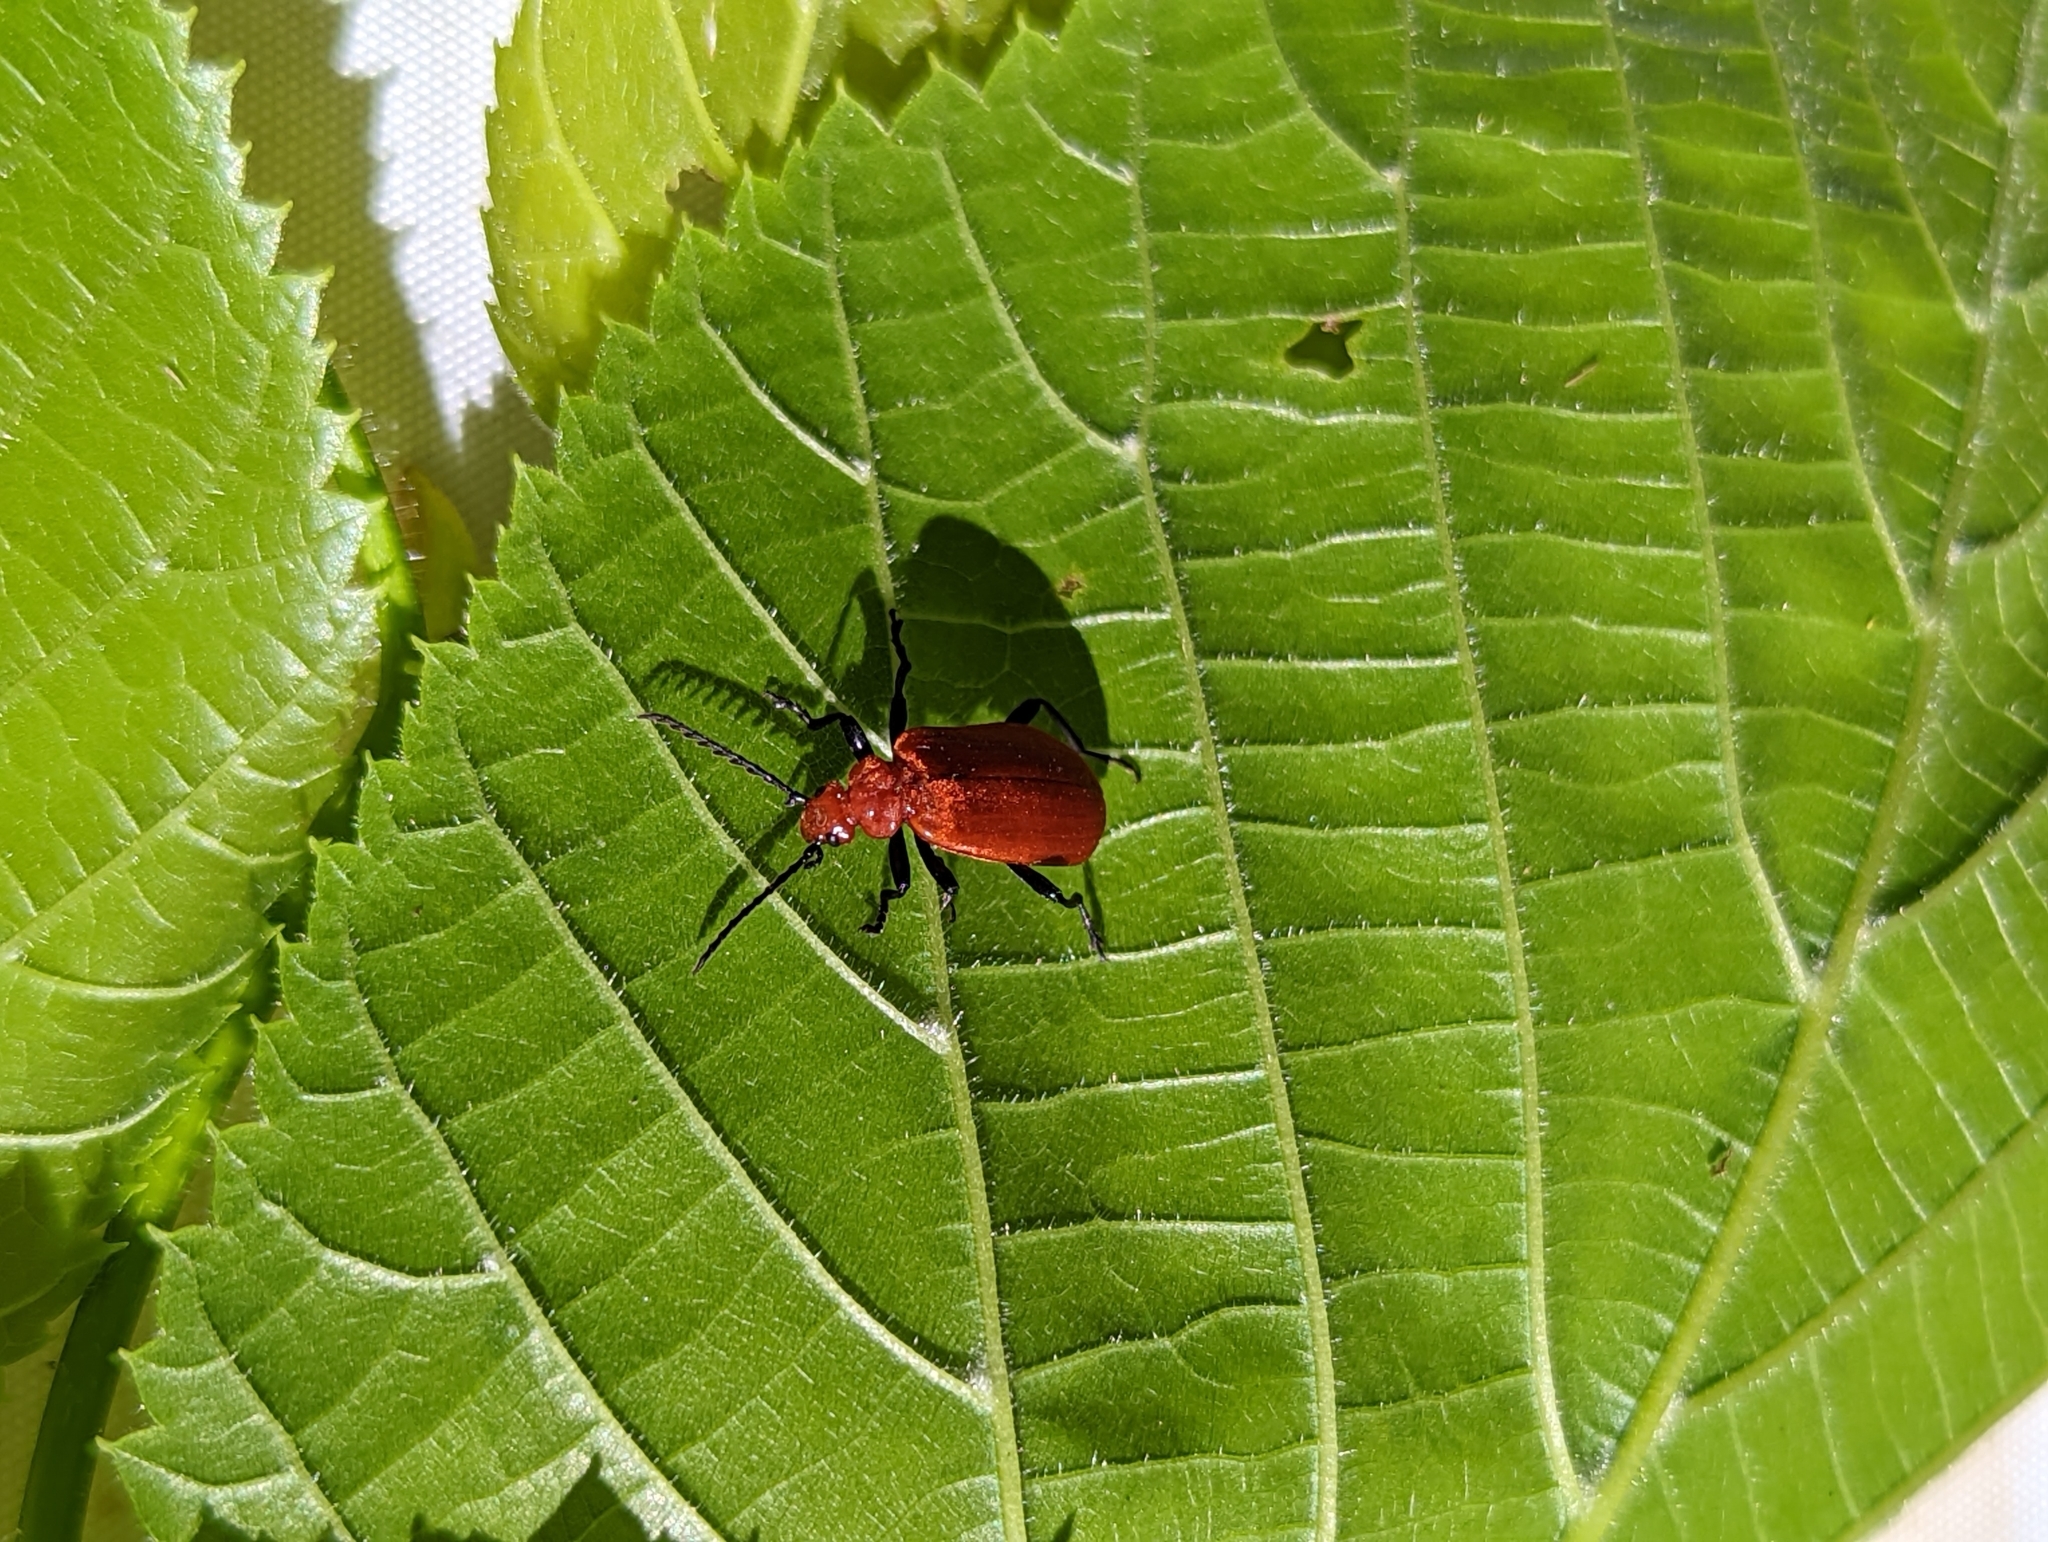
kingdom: Animalia
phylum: Arthropoda
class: Insecta
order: Coleoptera
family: Pyrochroidae
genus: Pyrochroa
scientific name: Pyrochroa serraticornis
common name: Red-headed cardinal beetle
